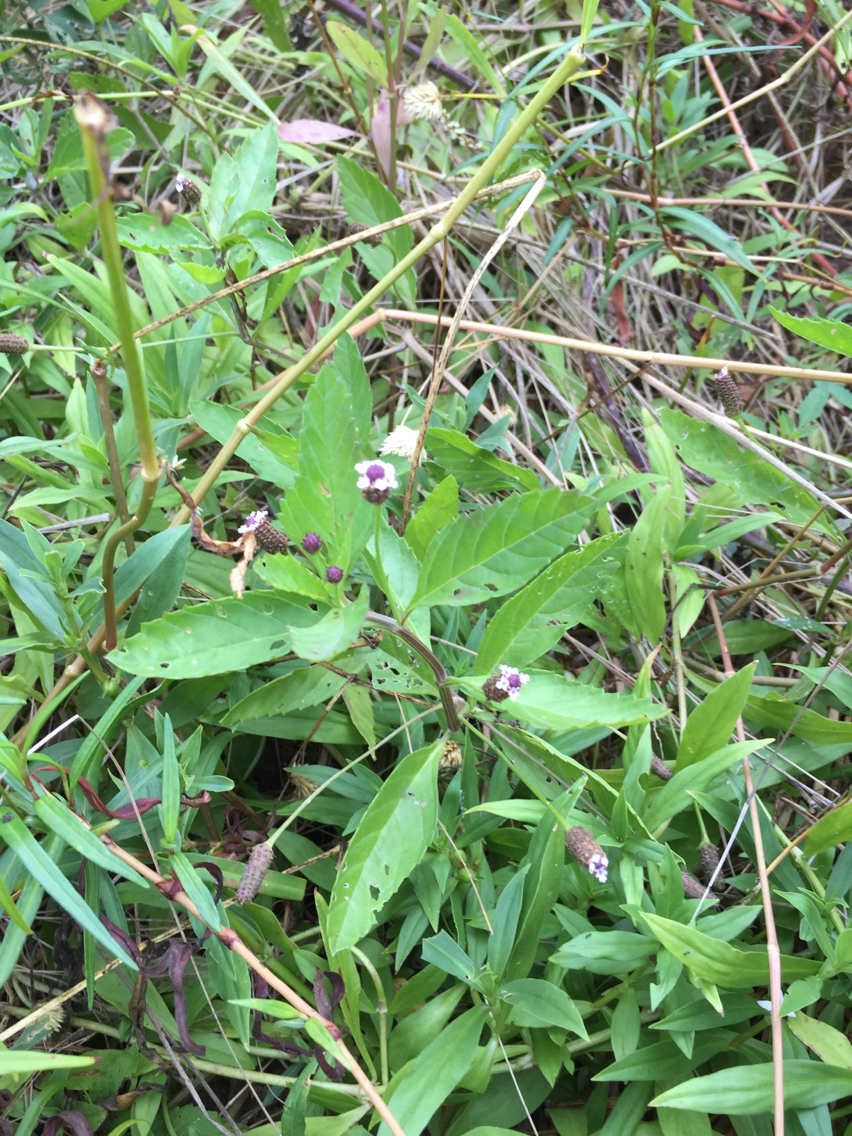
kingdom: Plantae
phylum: Tracheophyta
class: Magnoliopsida
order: Lamiales
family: Verbenaceae
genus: Phyla
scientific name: Phyla lanceolata
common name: Northern fogfruit
